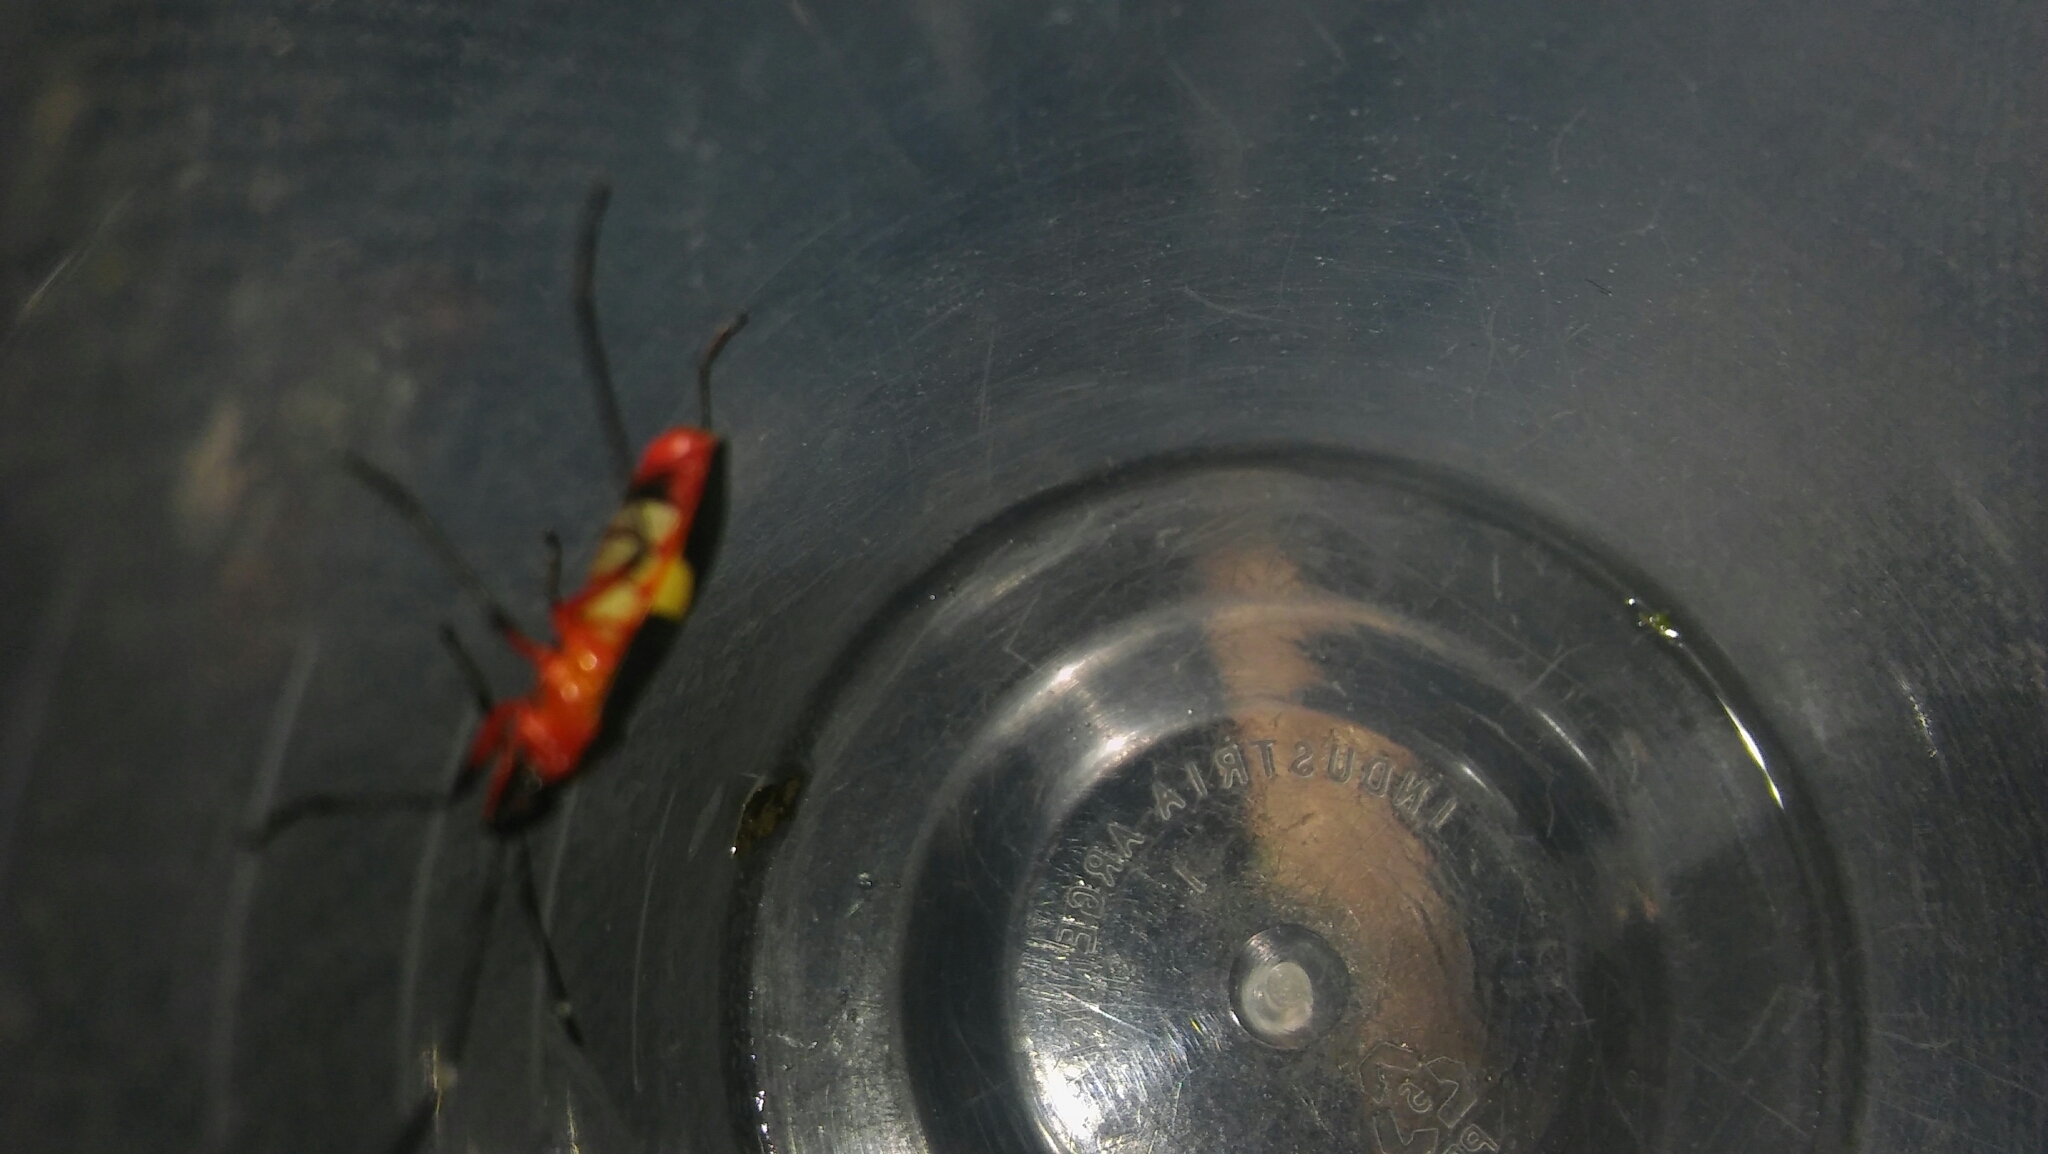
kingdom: Animalia
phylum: Arthropoda
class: Insecta
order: Hemiptera
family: Pyrrhocoridae
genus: Dysdercus
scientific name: Dysdercus albofasciatus
